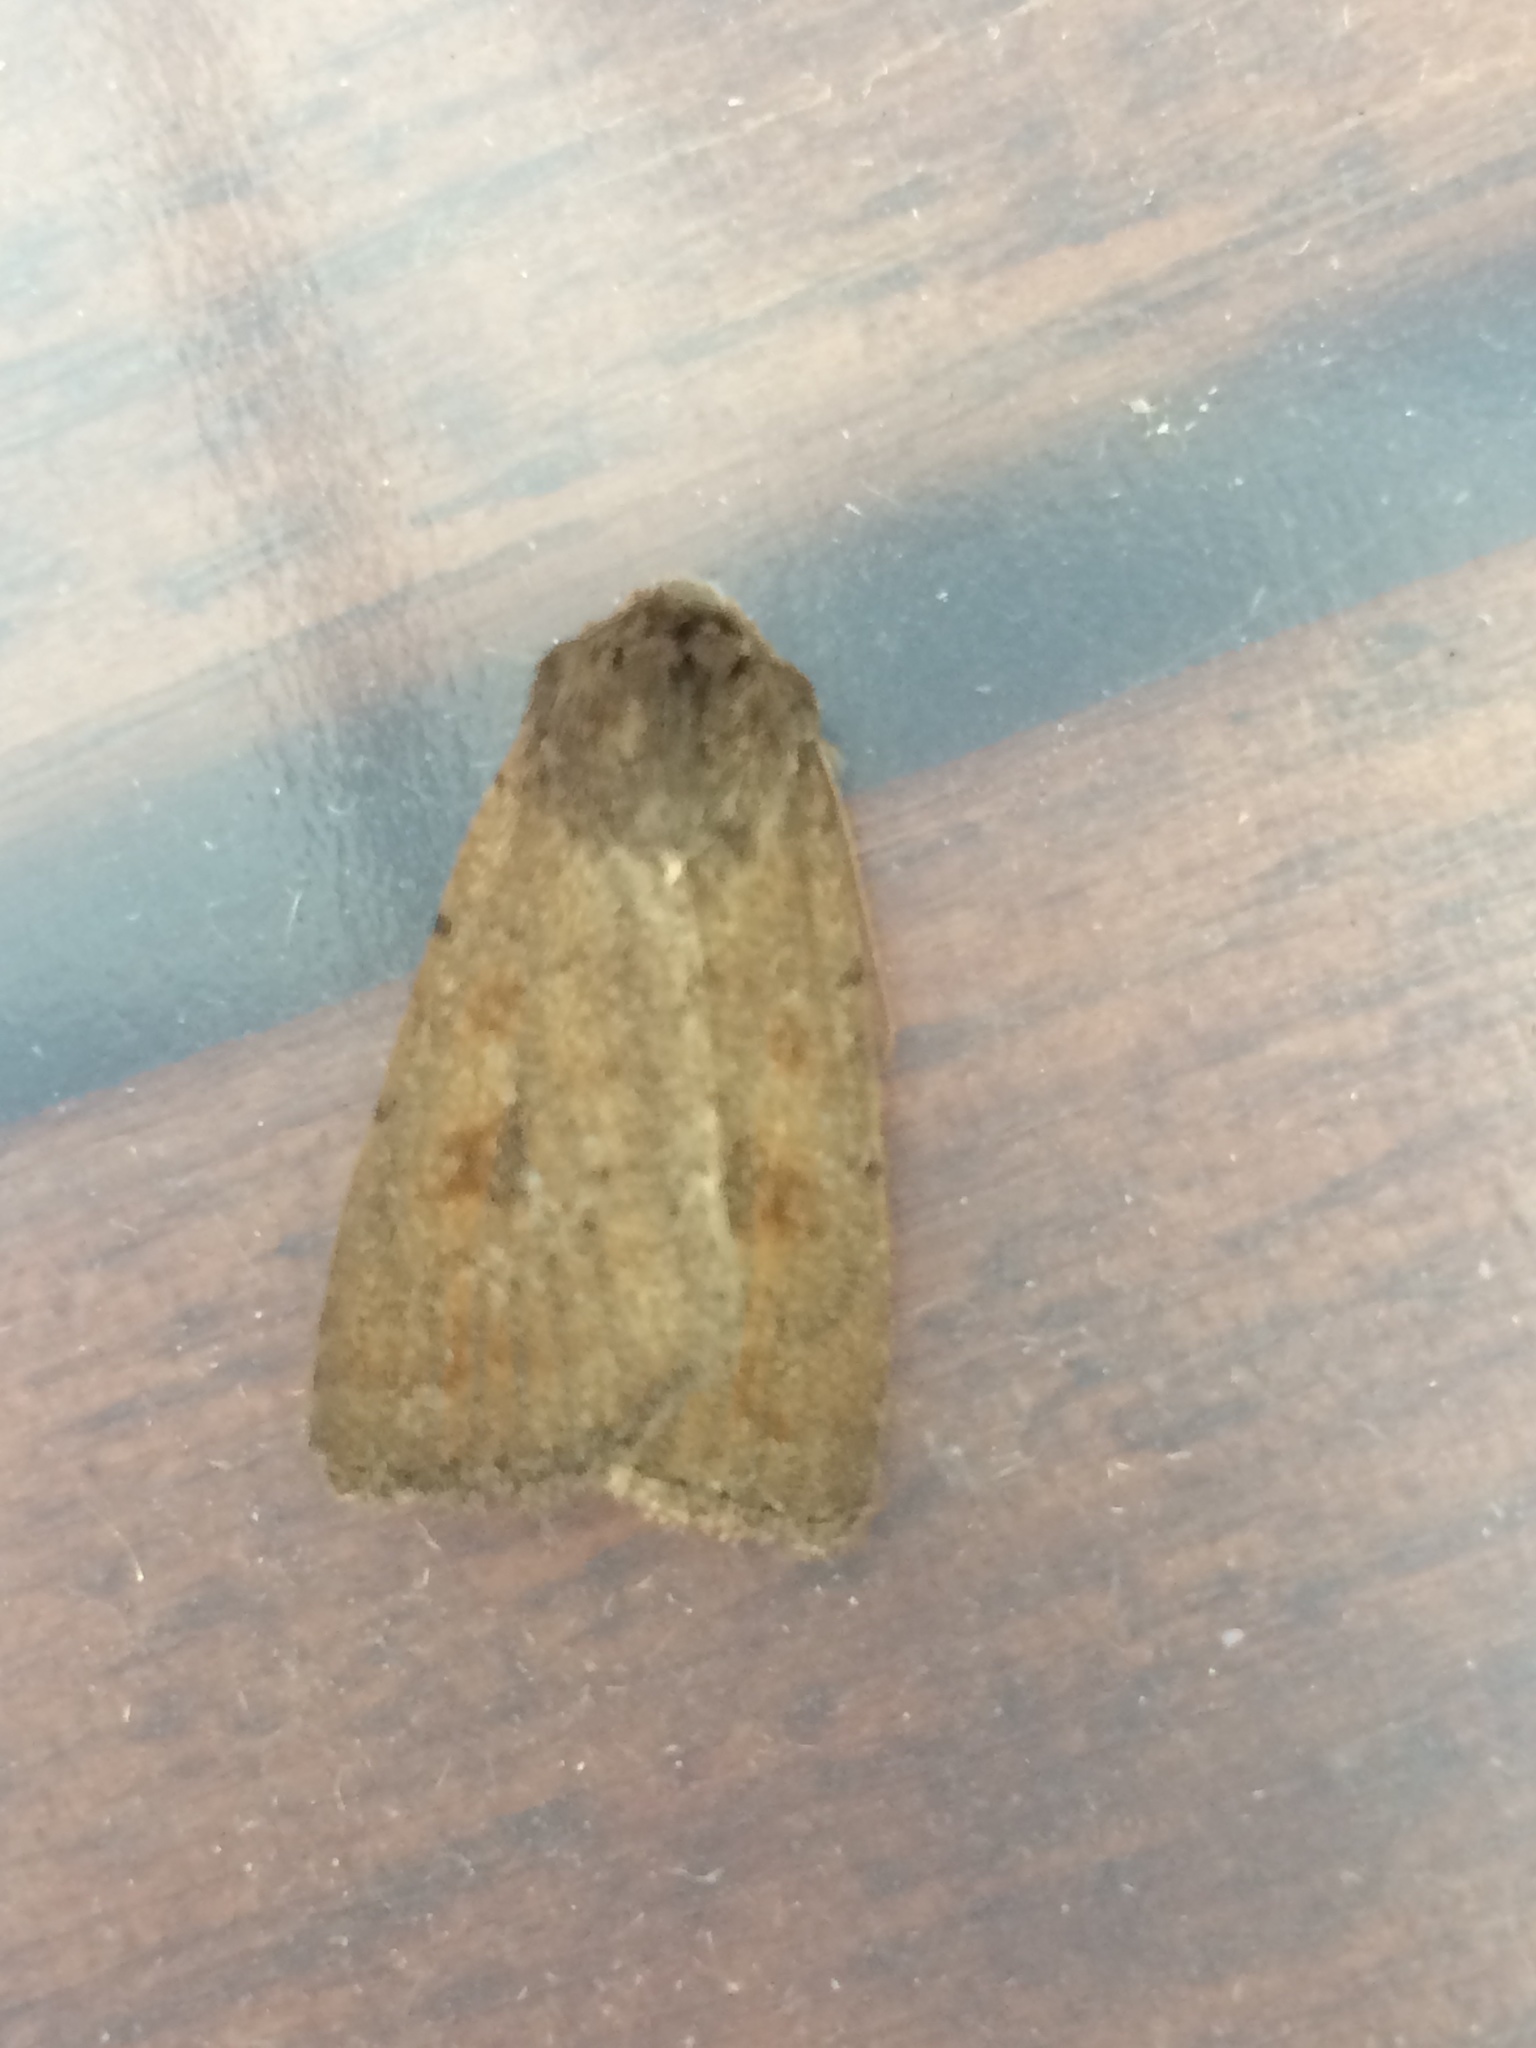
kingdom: Animalia
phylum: Arthropoda
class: Insecta
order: Lepidoptera
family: Noctuidae
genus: Caradrina
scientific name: Caradrina morpheus
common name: Mottled rustic
